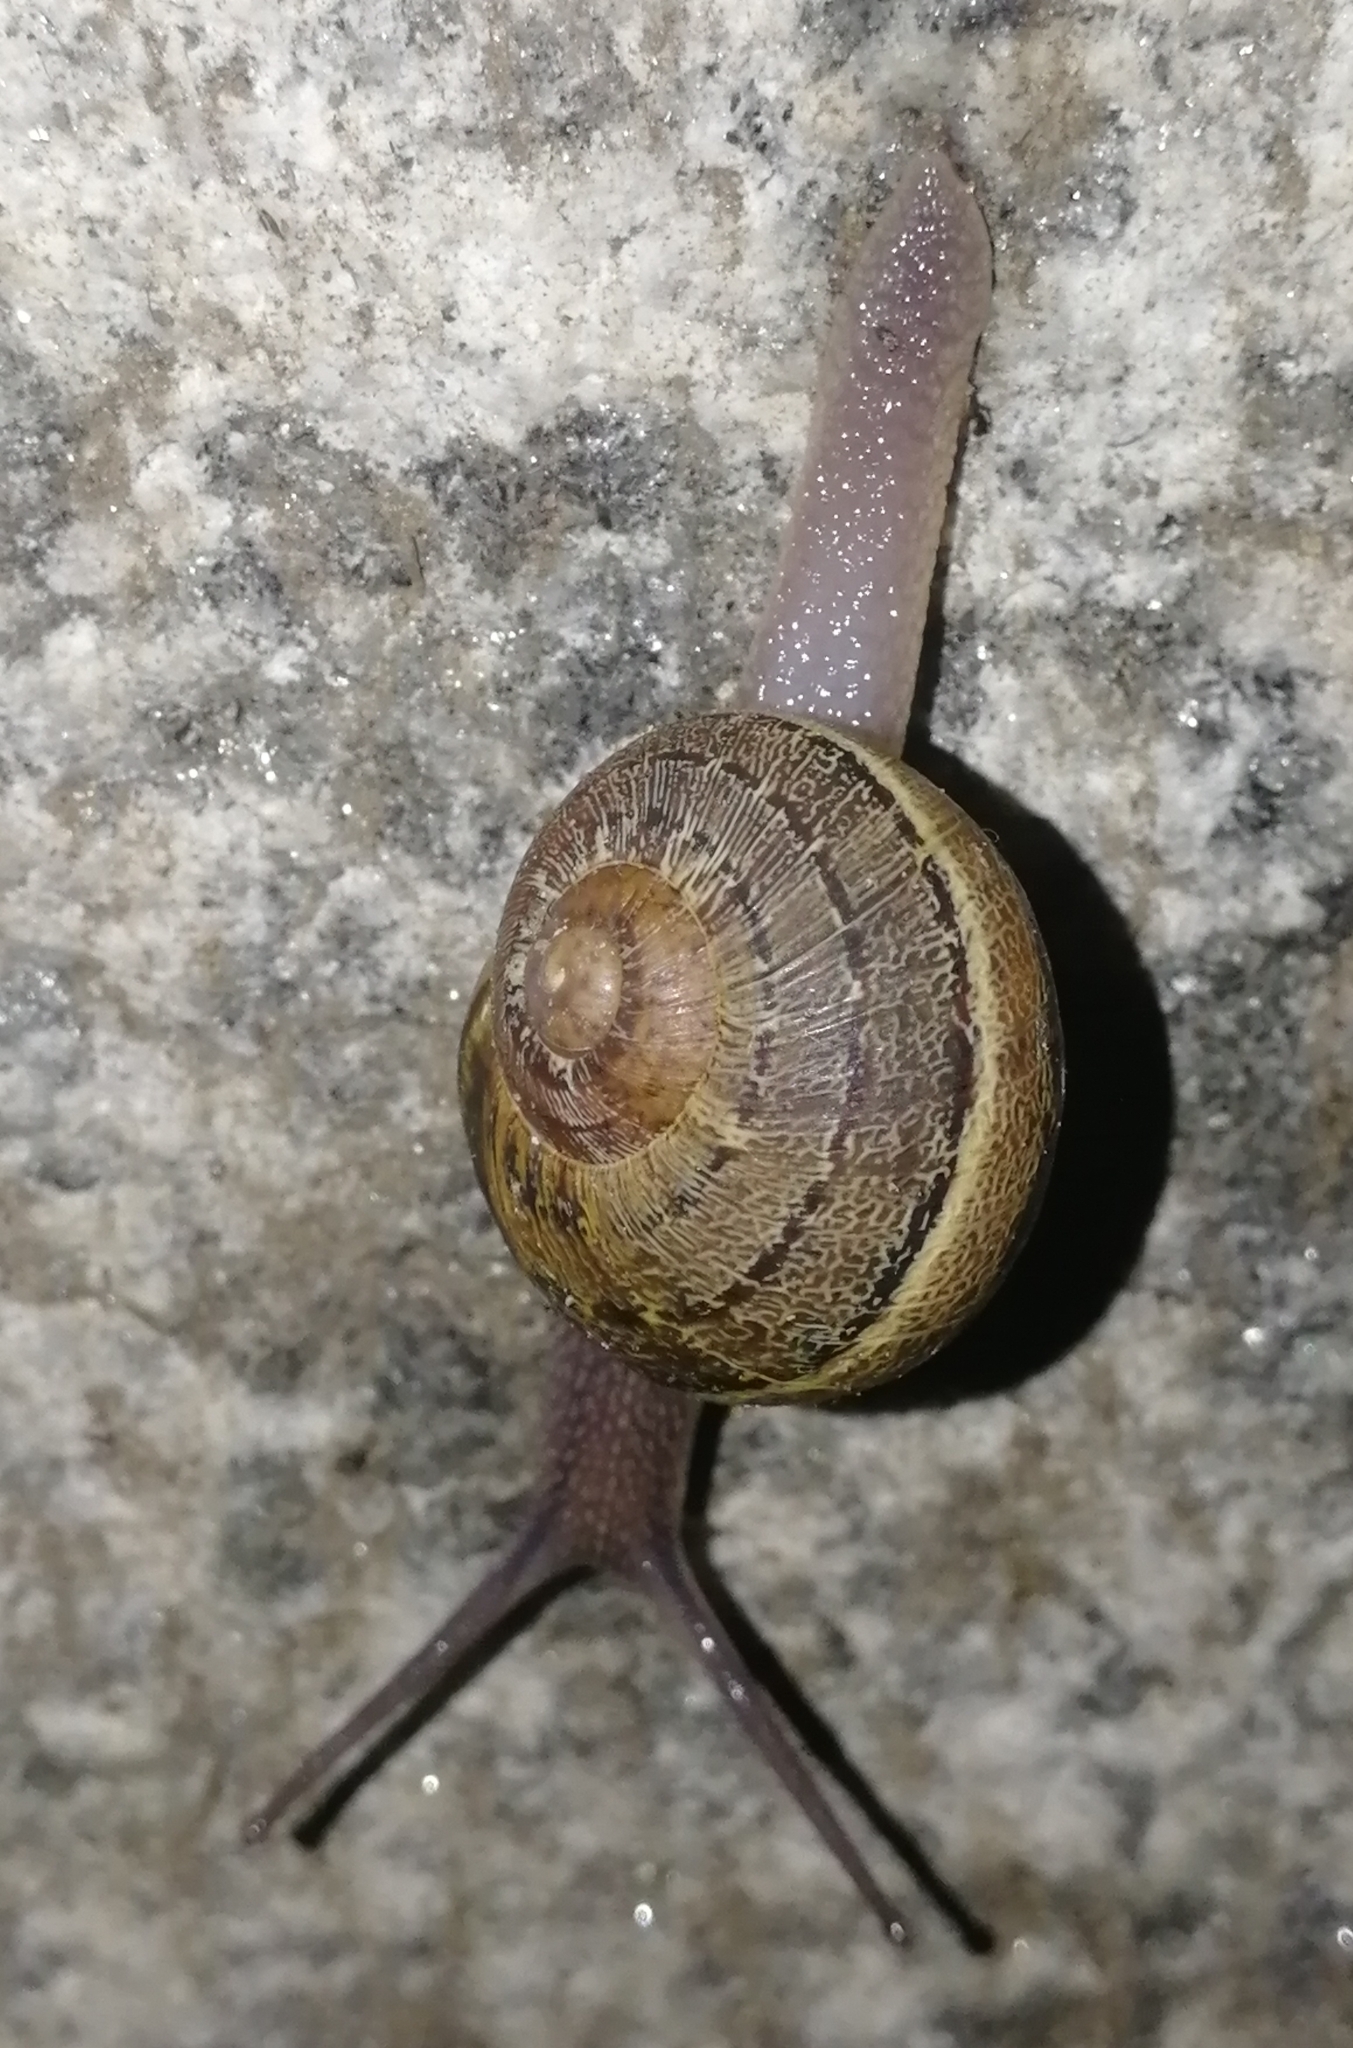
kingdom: Animalia
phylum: Mollusca
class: Gastropoda
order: Stylommatophora
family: Helicidae
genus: Cornu
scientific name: Cornu aspersum
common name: Brown garden snail
